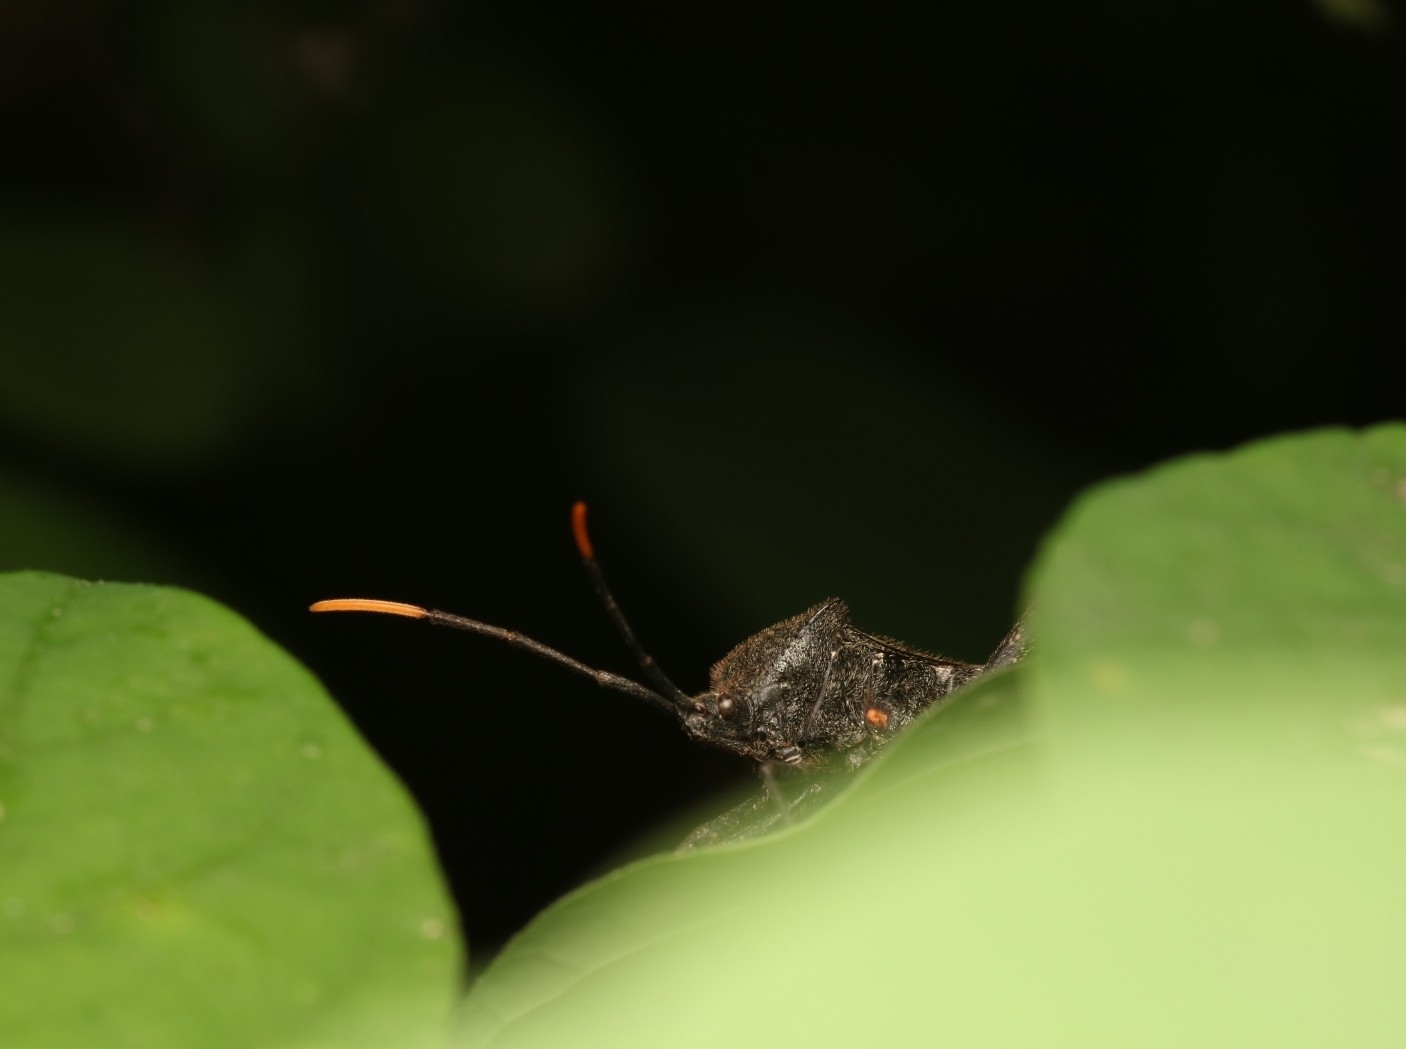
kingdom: Animalia
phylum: Arthropoda
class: Insecta
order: Hemiptera
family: Coreidae
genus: Acanthocephala
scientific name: Acanthocephala terminalis
